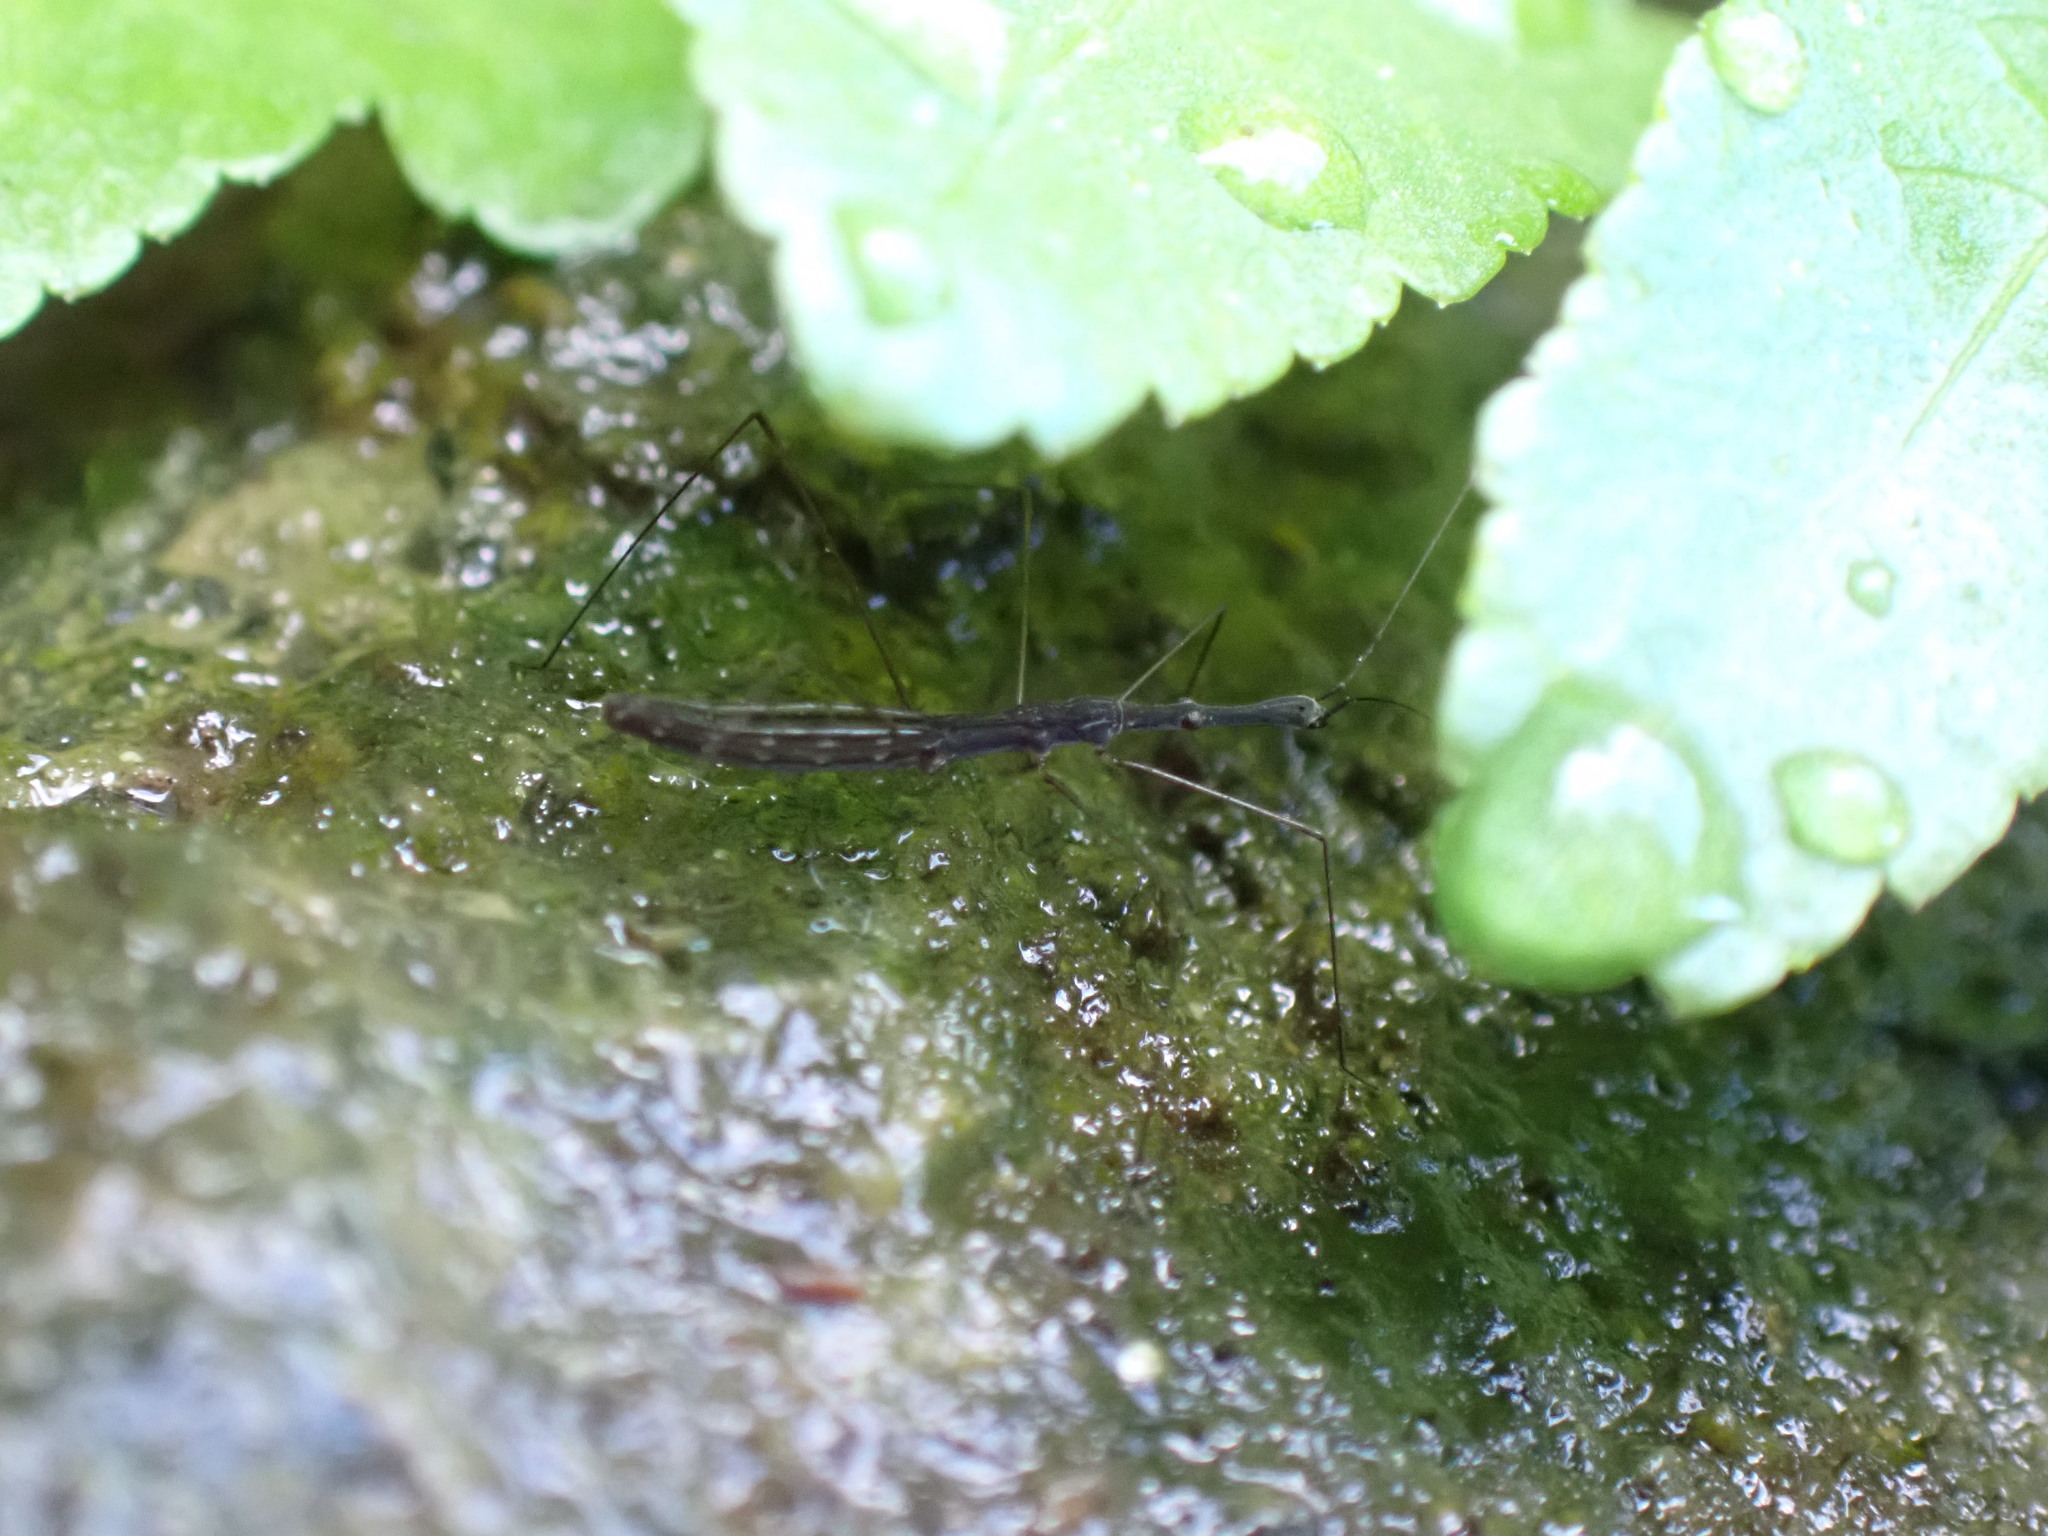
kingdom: Animalia
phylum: Arthropoda
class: Insecta
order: Hemiptera
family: Hydrometridae
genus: Hydrometra
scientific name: Hydrometra stagnorum
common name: Water measurer
